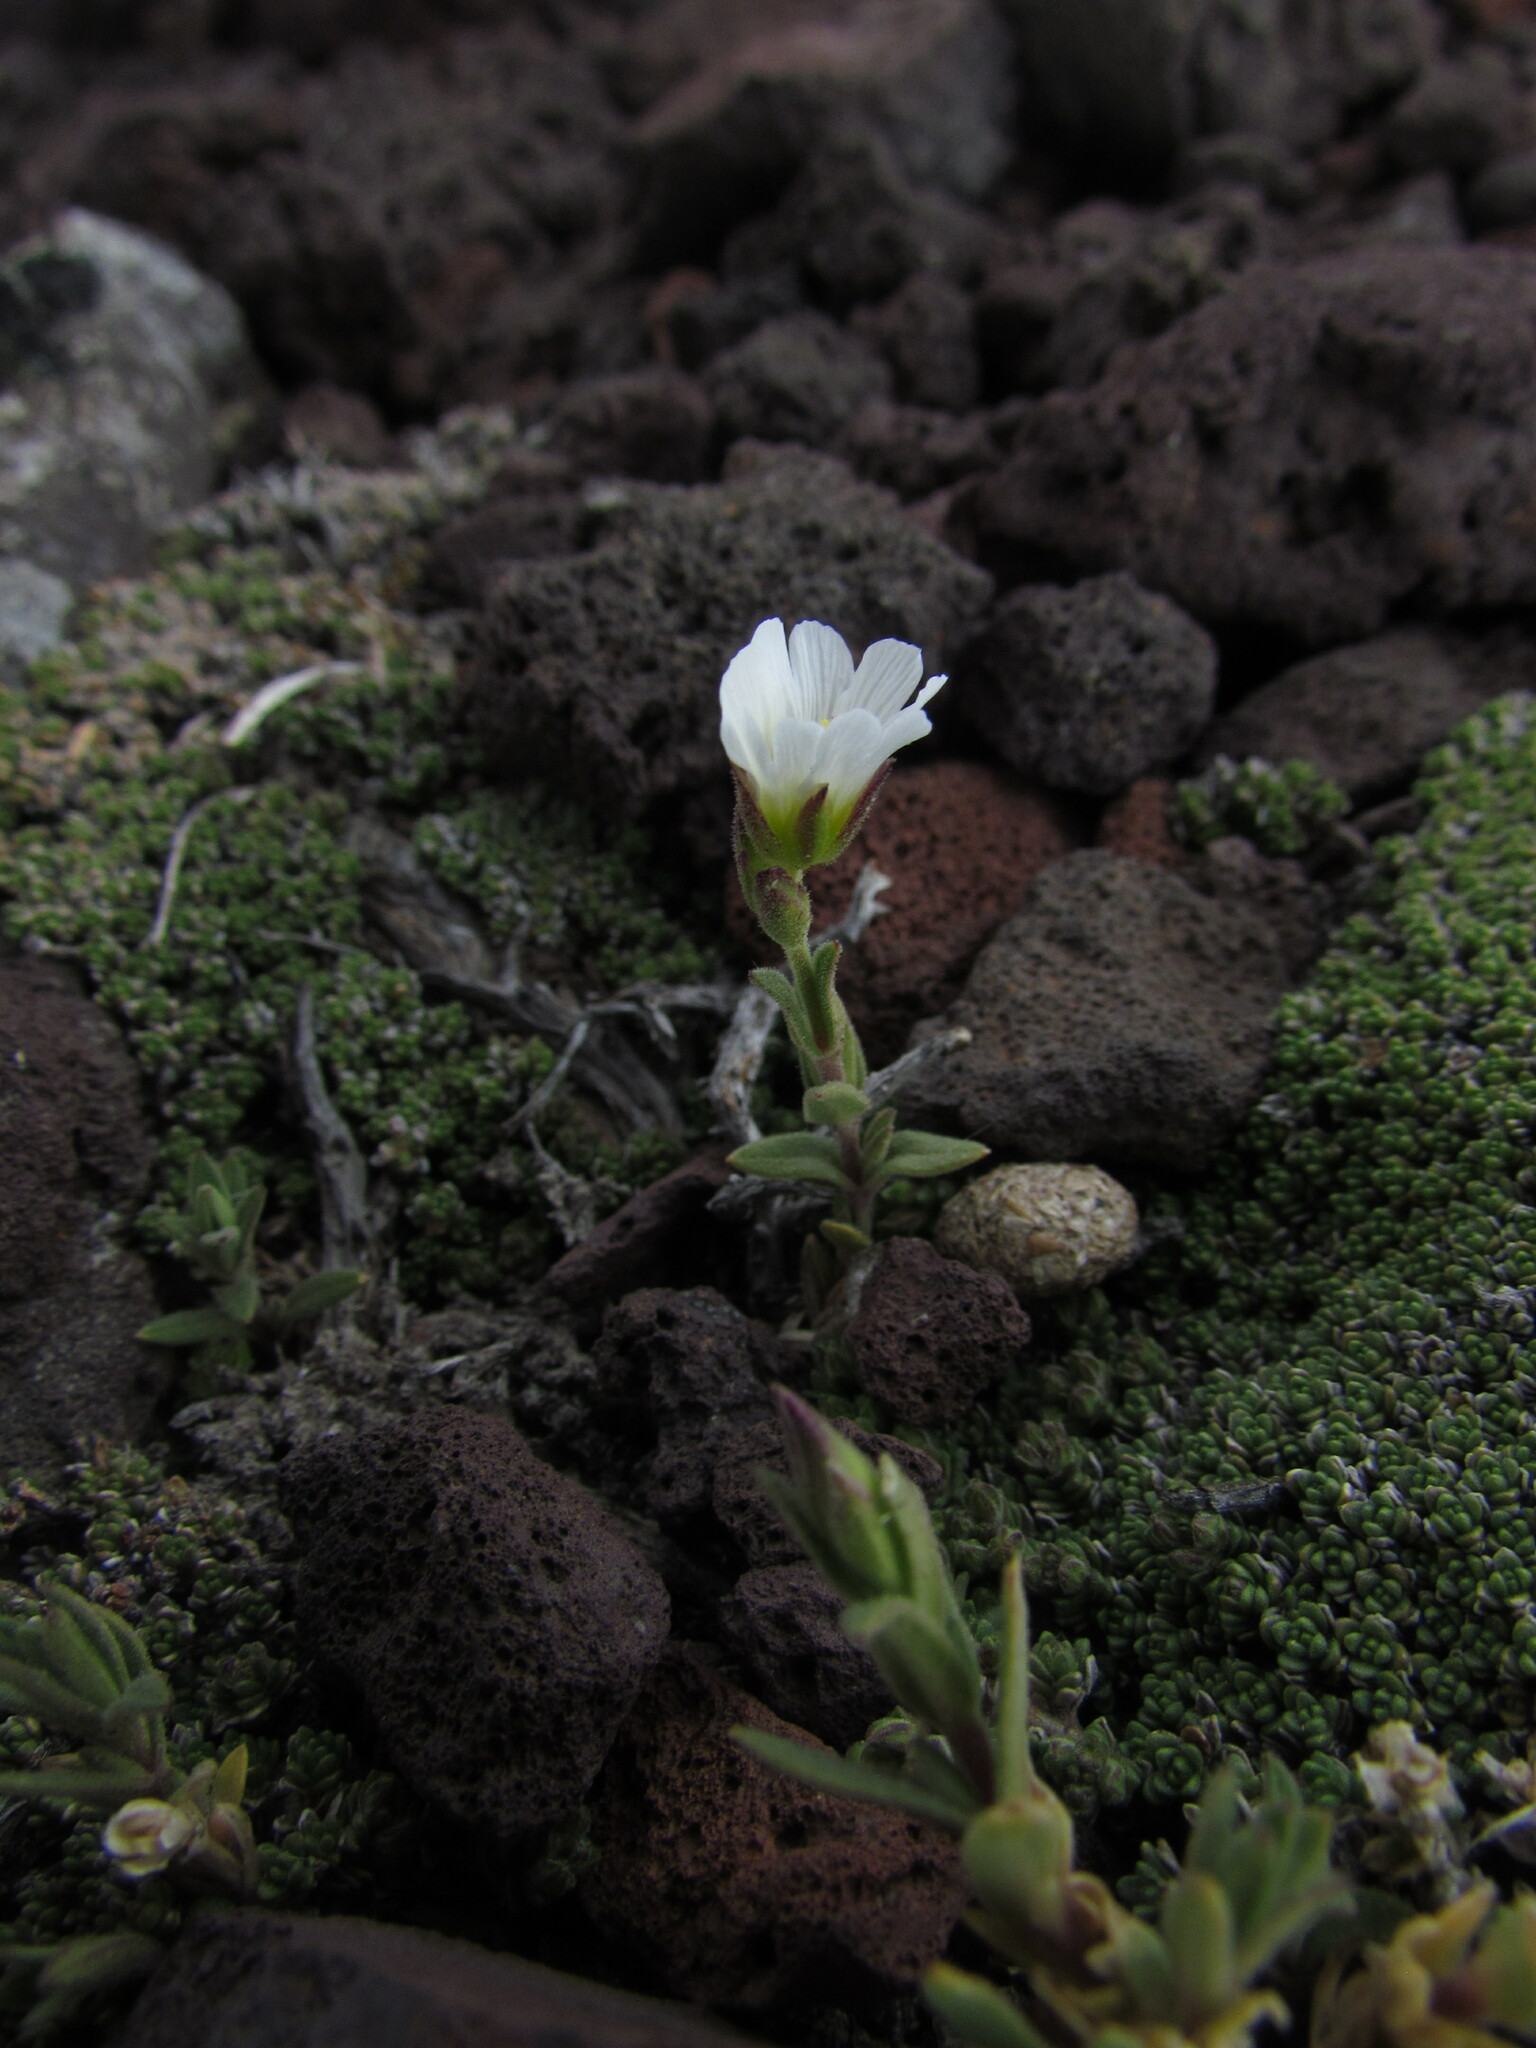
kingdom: Plantae
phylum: Tracheophyta
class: Magnoliopsida
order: Caryophyllales
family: Caryophyllaceae
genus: Cerastium
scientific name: Cerastium arvense
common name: Field mouse-ear
